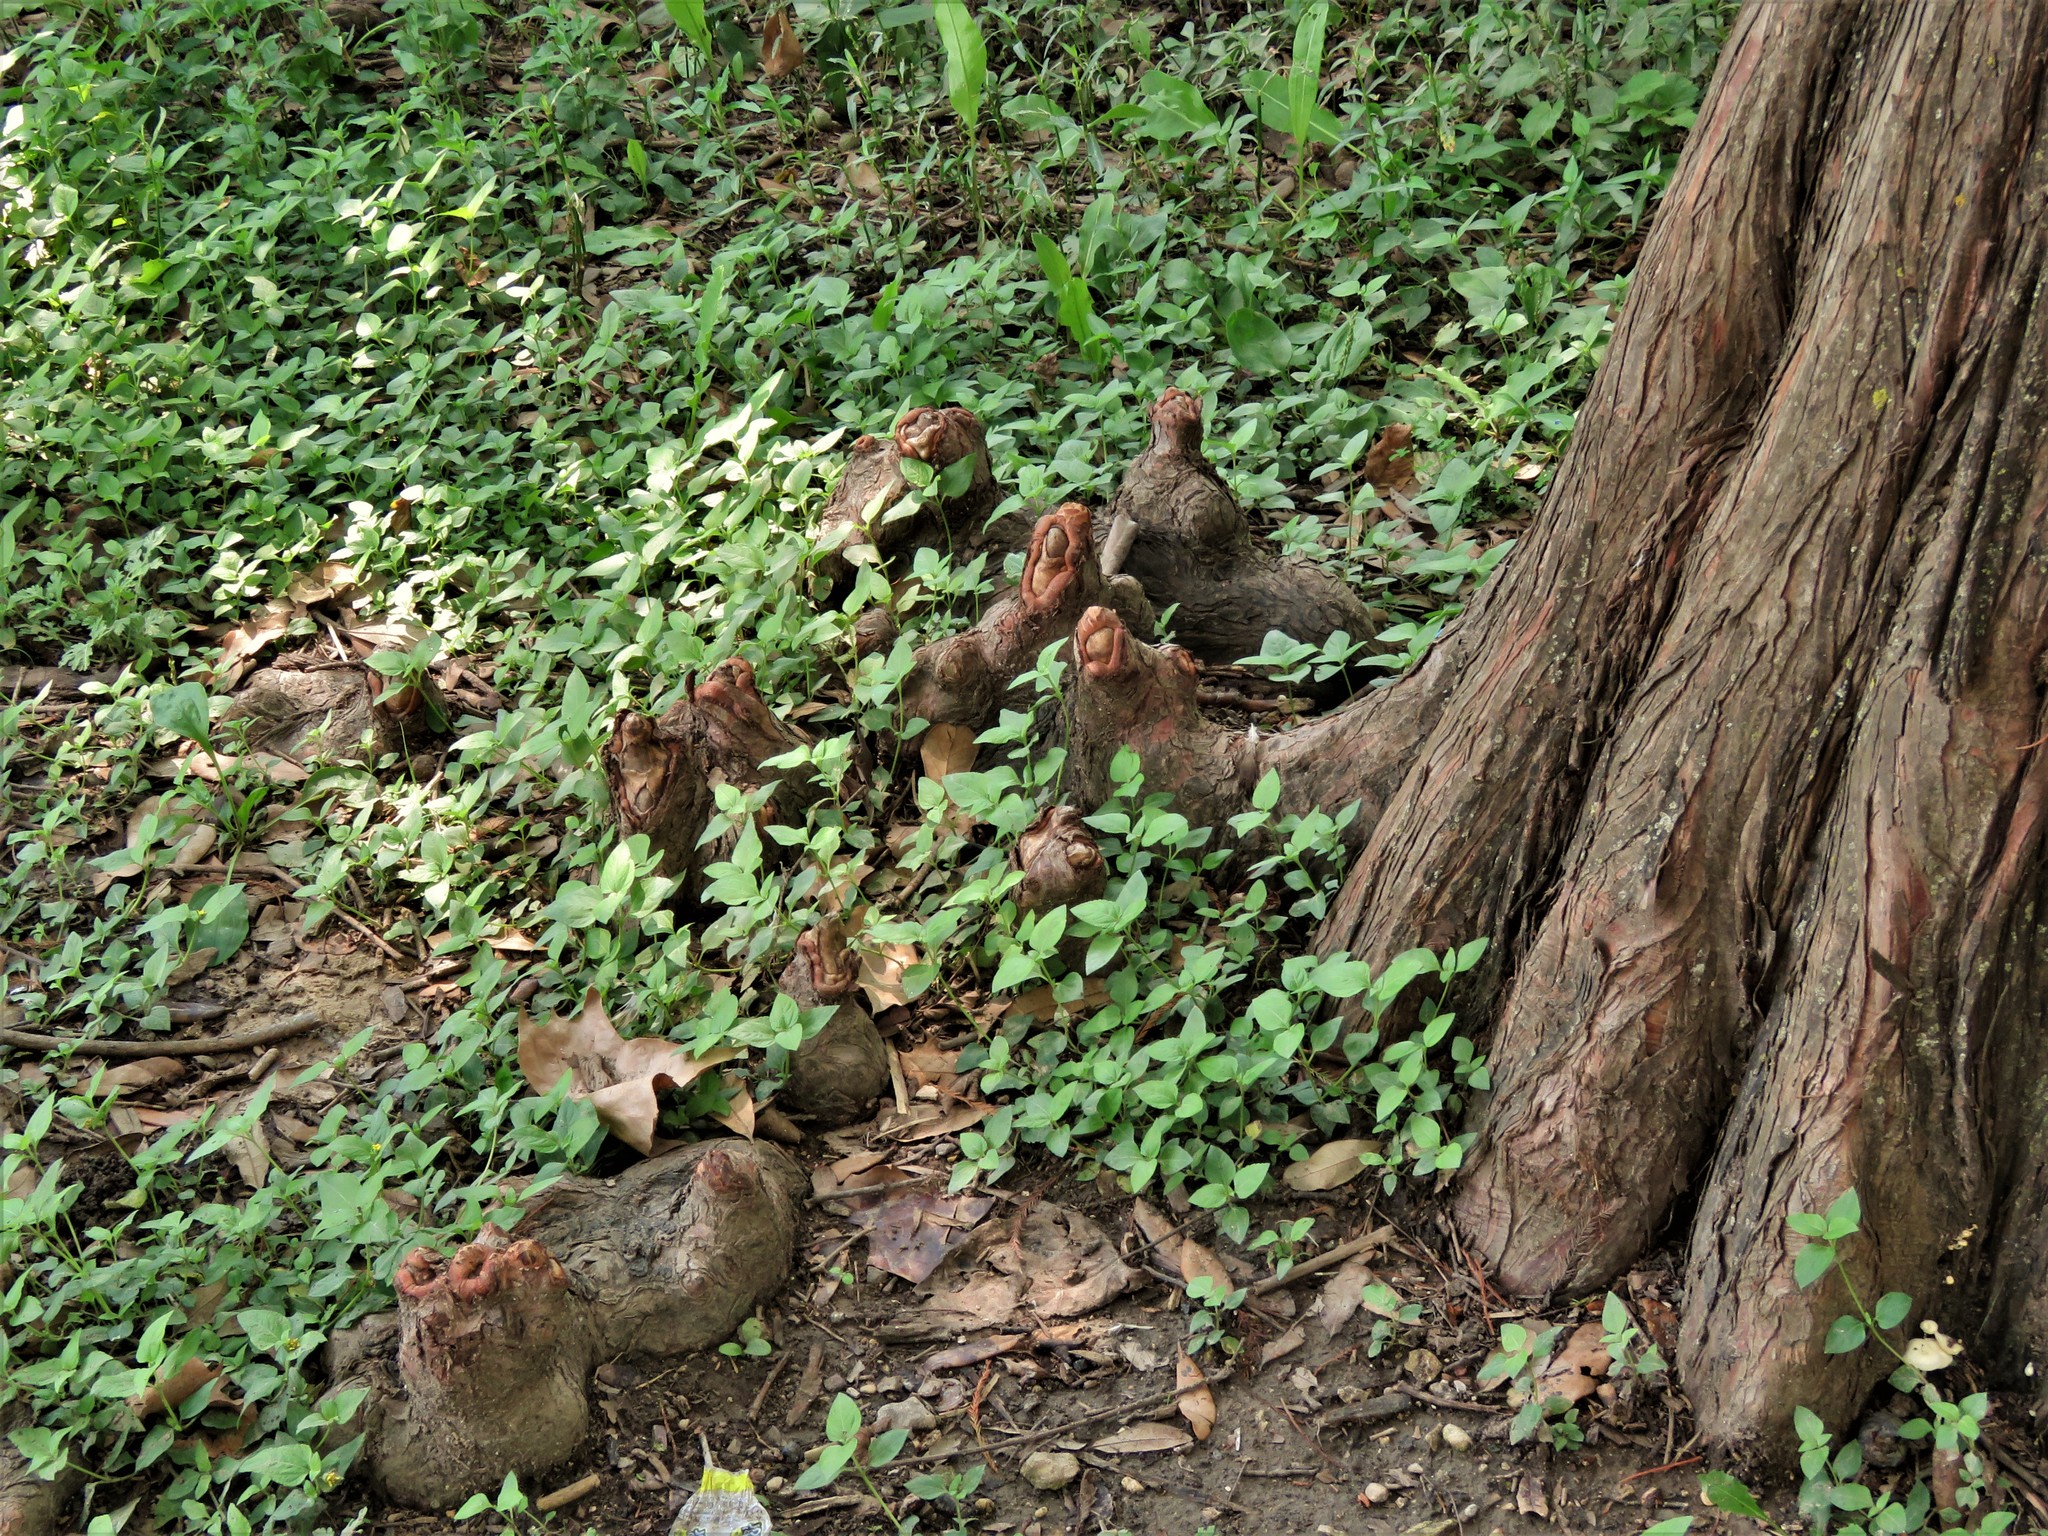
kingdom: Plantae
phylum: Tracheophyta
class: Pinopsida
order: Pinales
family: Cupressaceae
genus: Taxodium
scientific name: Taxodium distichum
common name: Bald cypress
